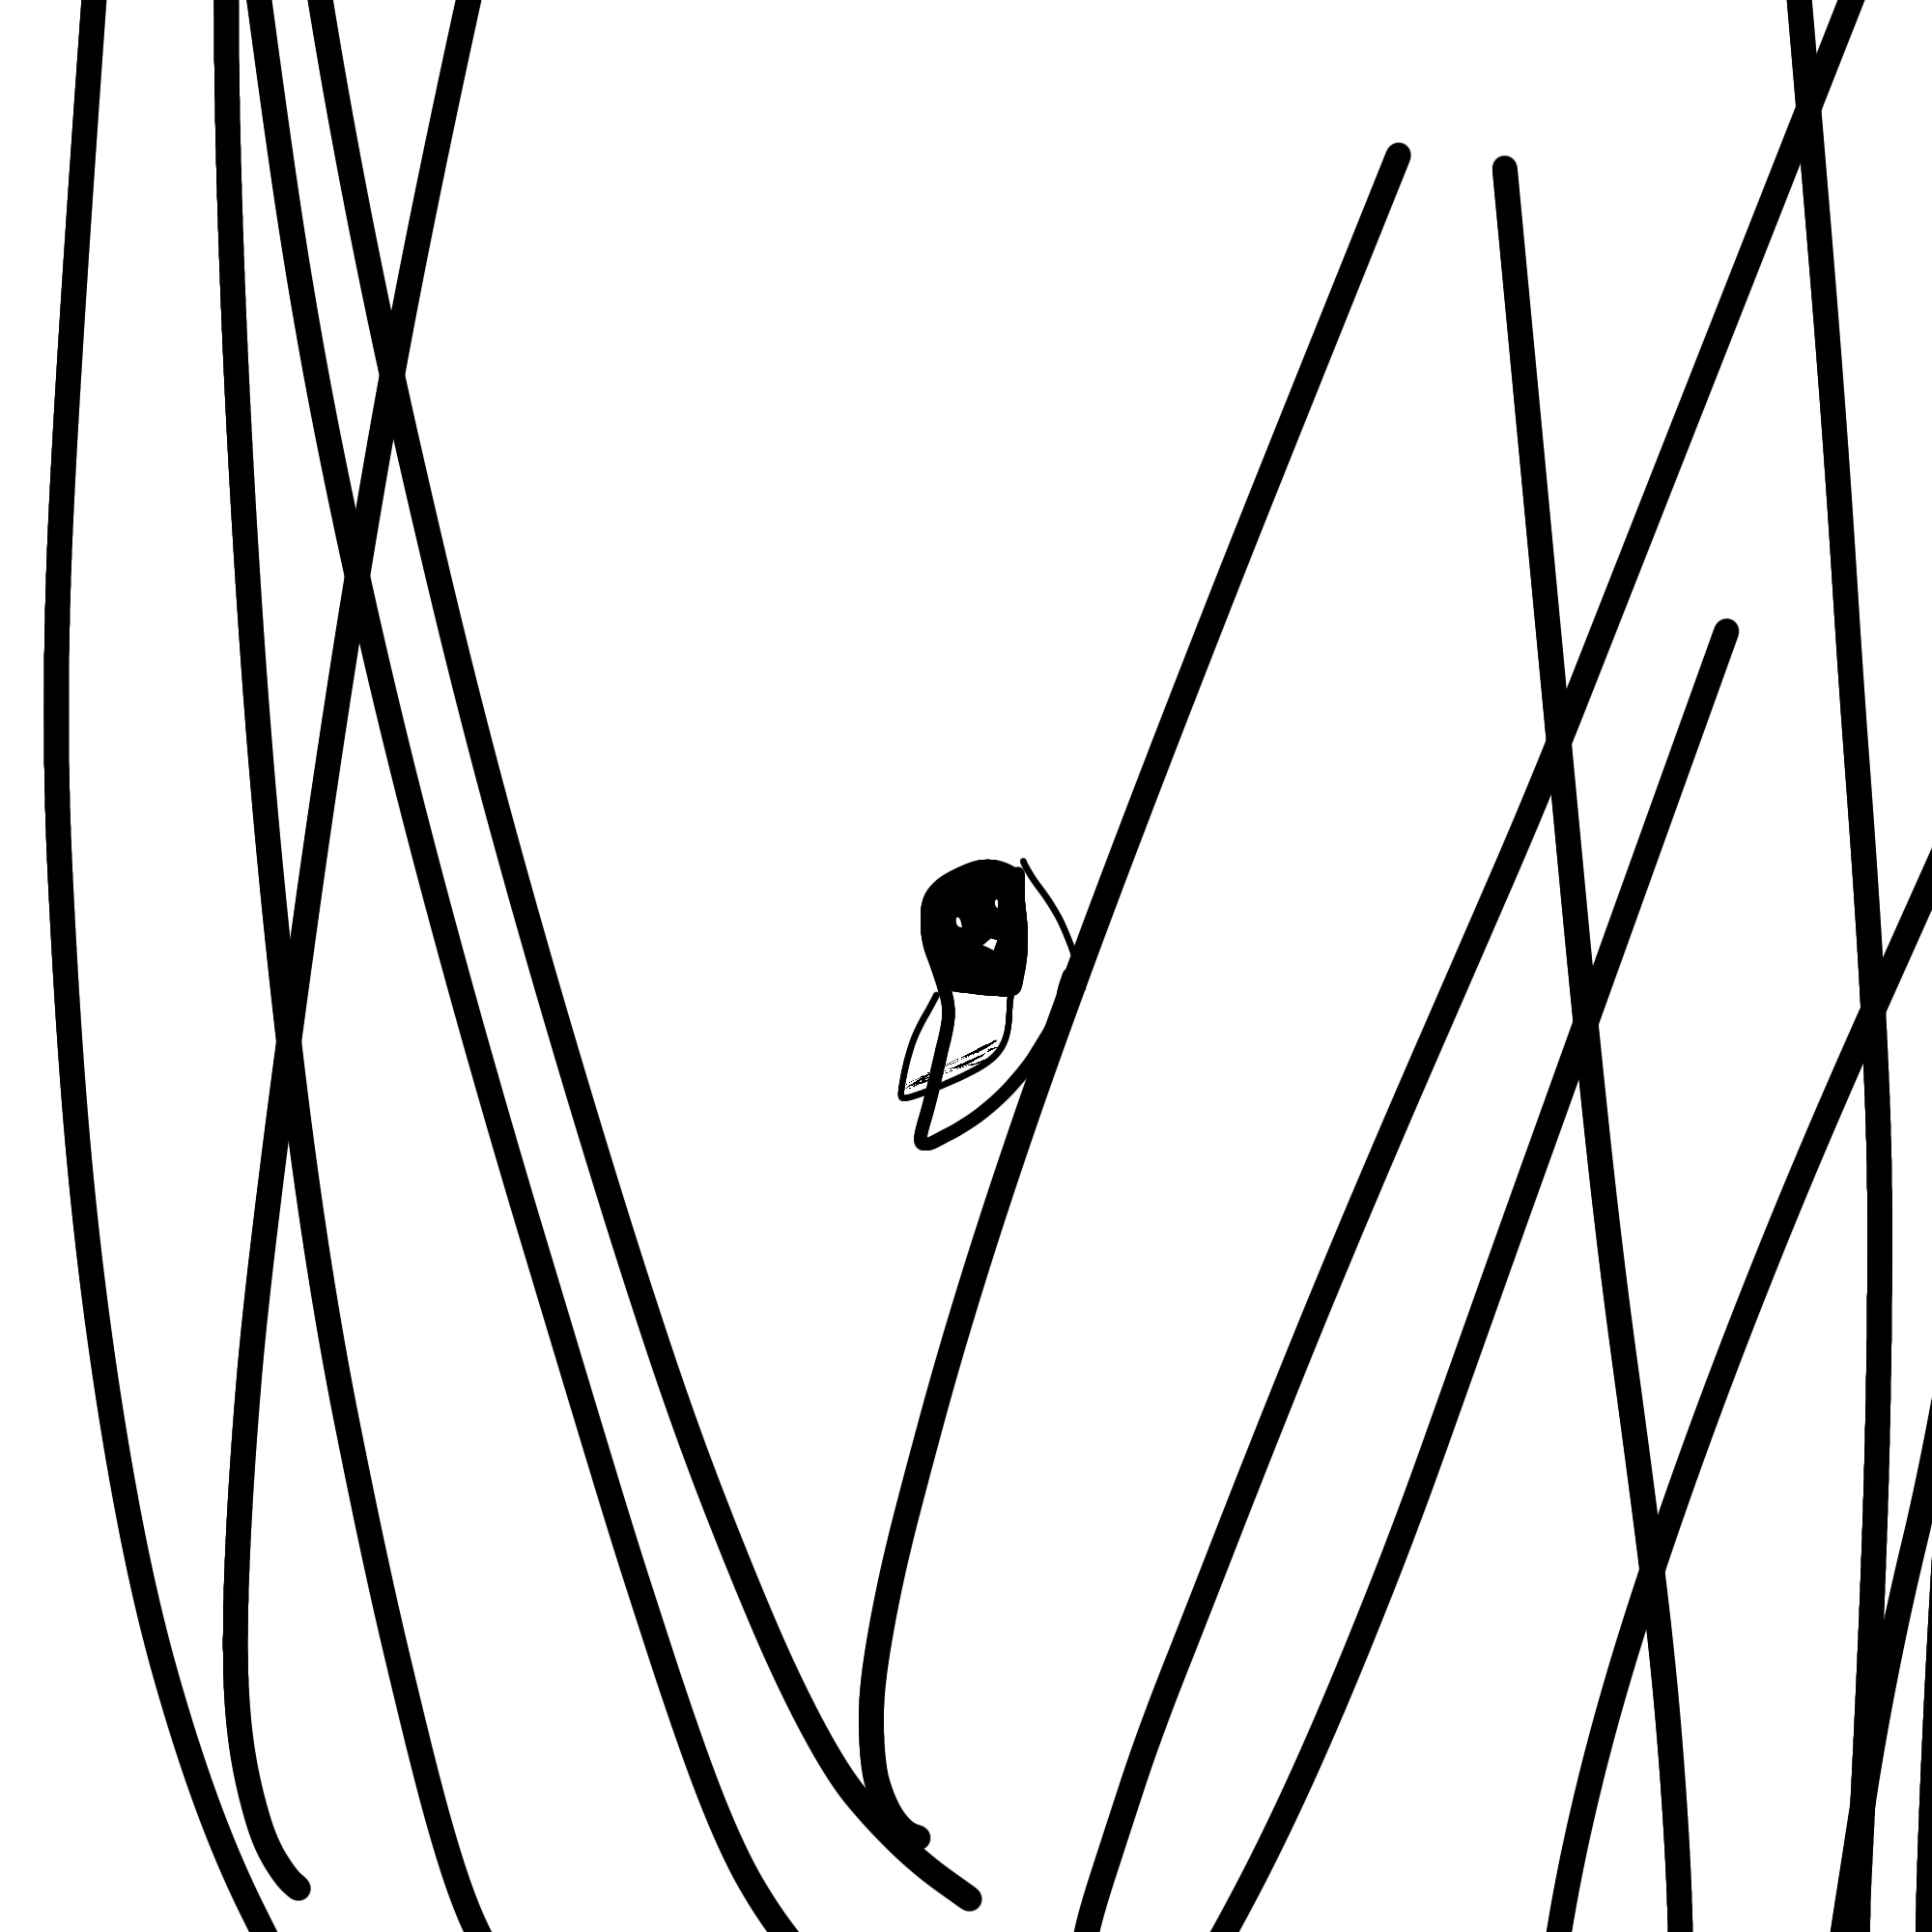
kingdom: Animalia
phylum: Chordata
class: Aves
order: Passeriformes
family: Paridae
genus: Poecile
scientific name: Poecile carolinensis
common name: Carolina chickadee
